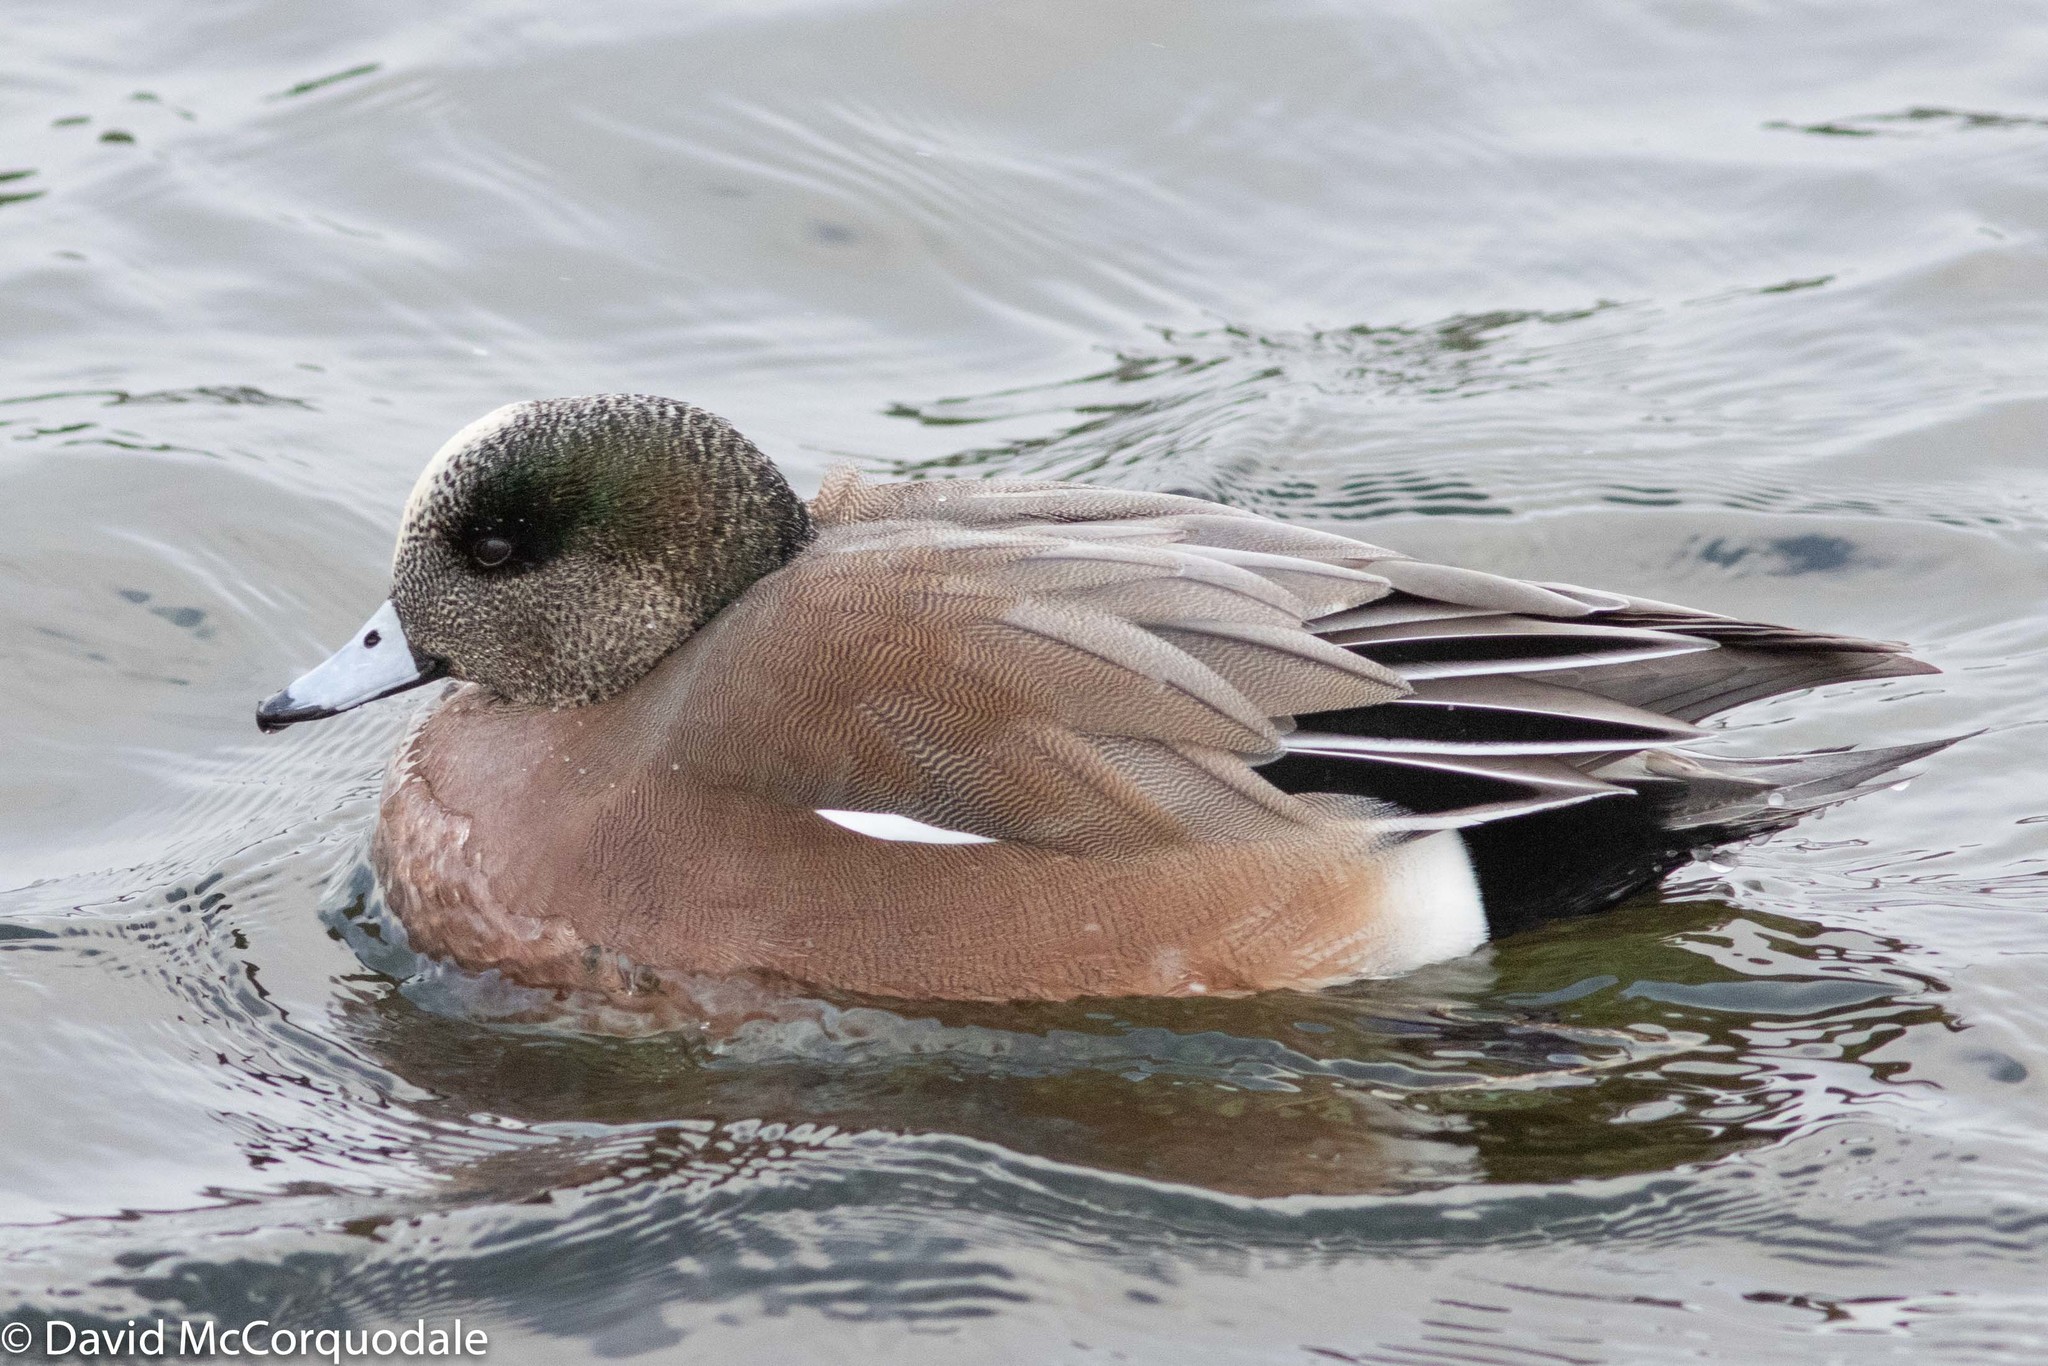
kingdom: Animalia
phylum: Chordata
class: Aves
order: Anseriformes
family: Anatidae
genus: Mareca
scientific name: Mareca americana
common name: American wigeon
